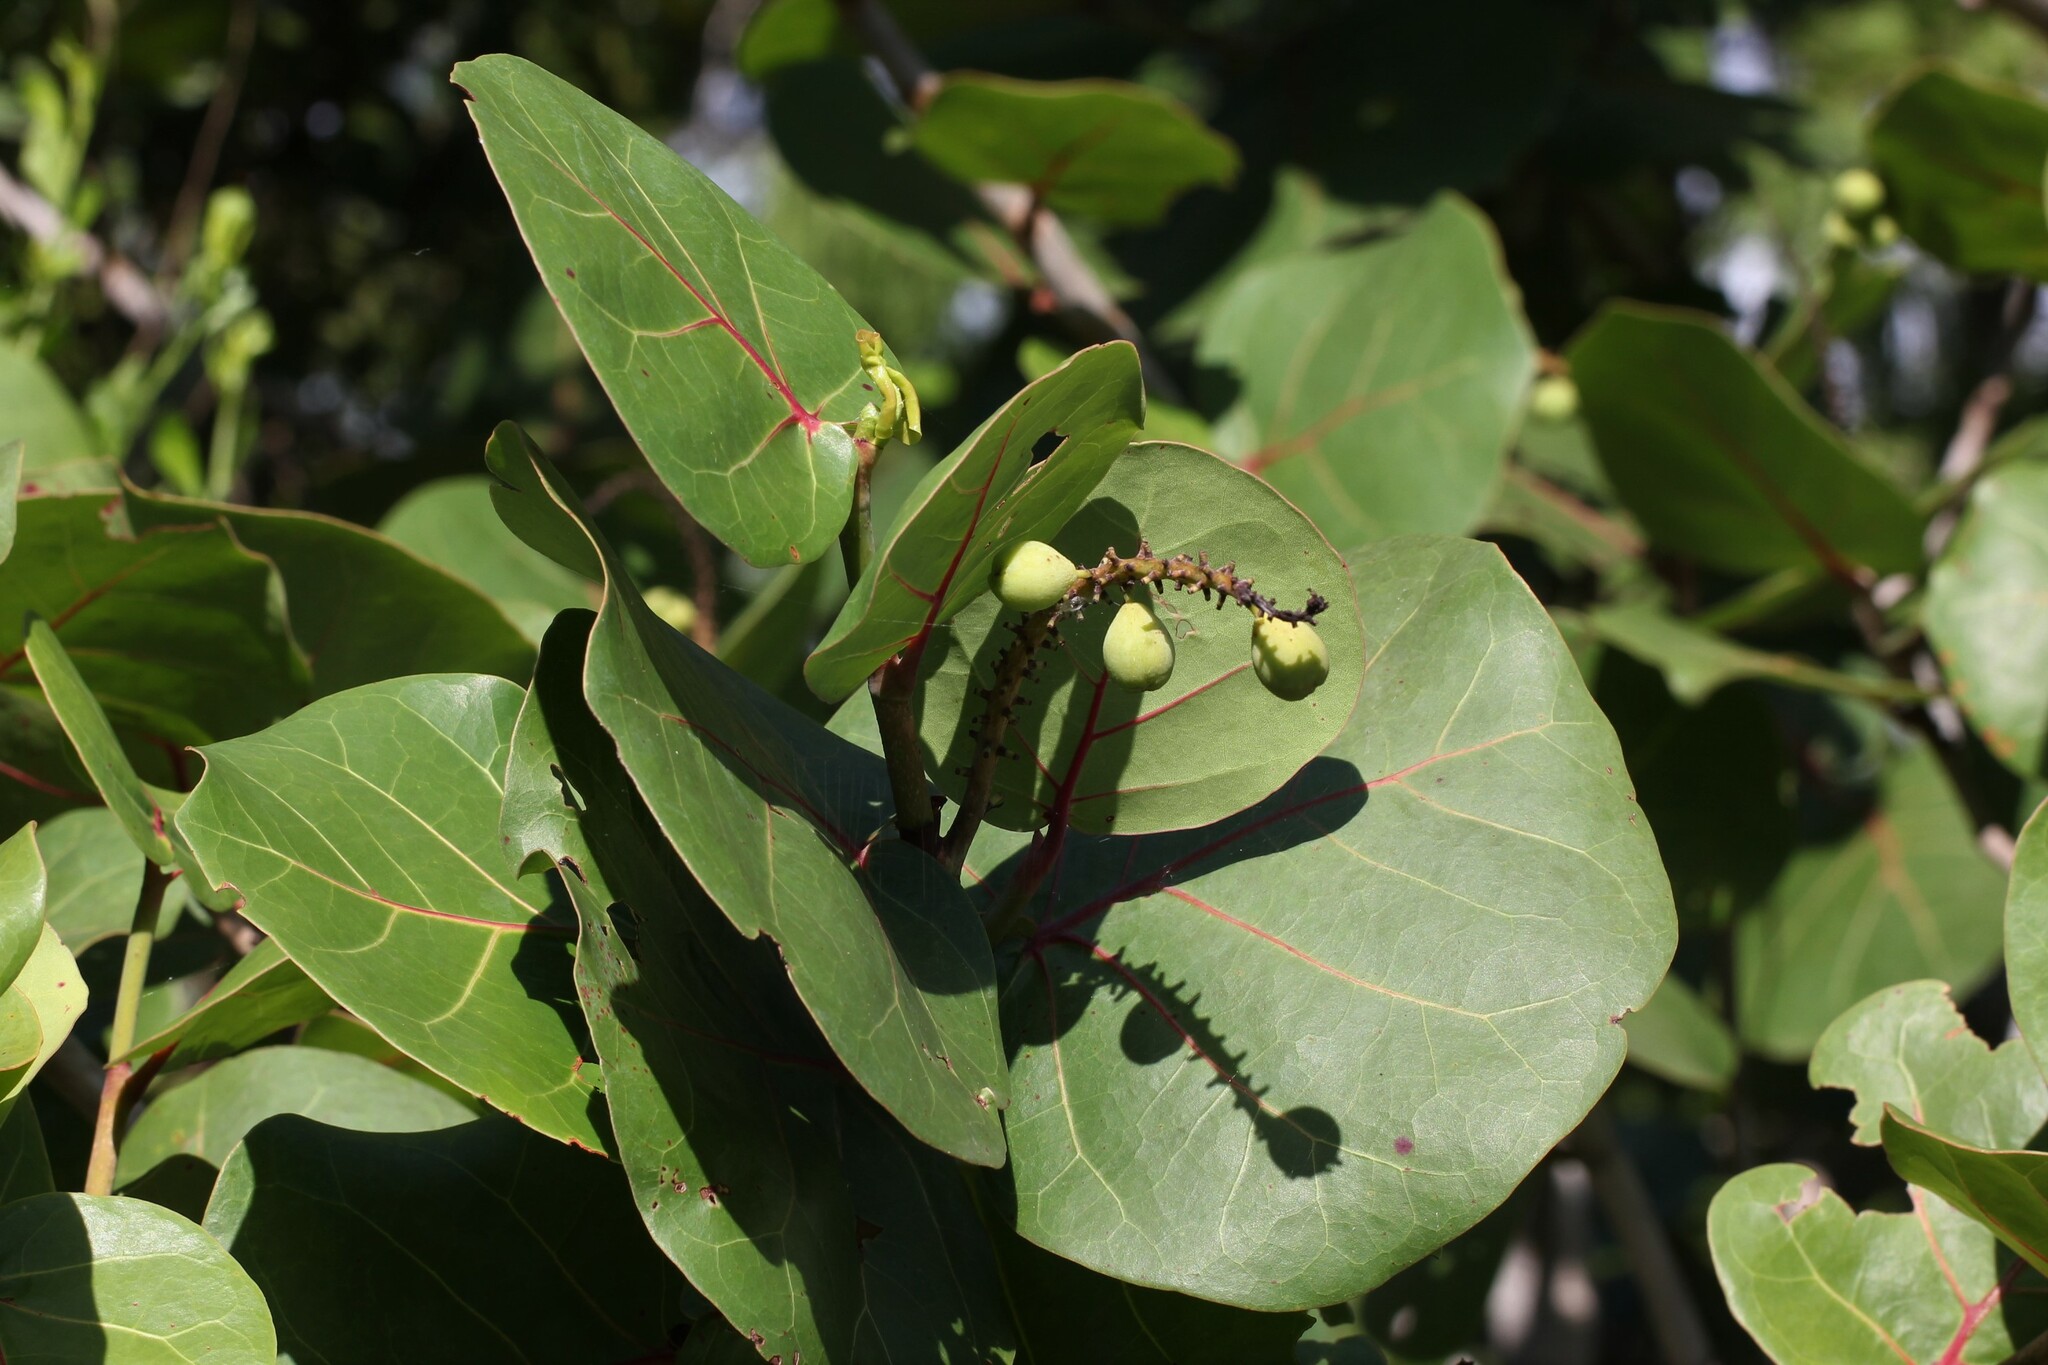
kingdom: Plantae
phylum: Tracheophyta
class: Magnoliopsida
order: Caryophyllales
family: Polygonaceae
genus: Coccoloba
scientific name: Coccoloba uvifera
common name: Seagrape
